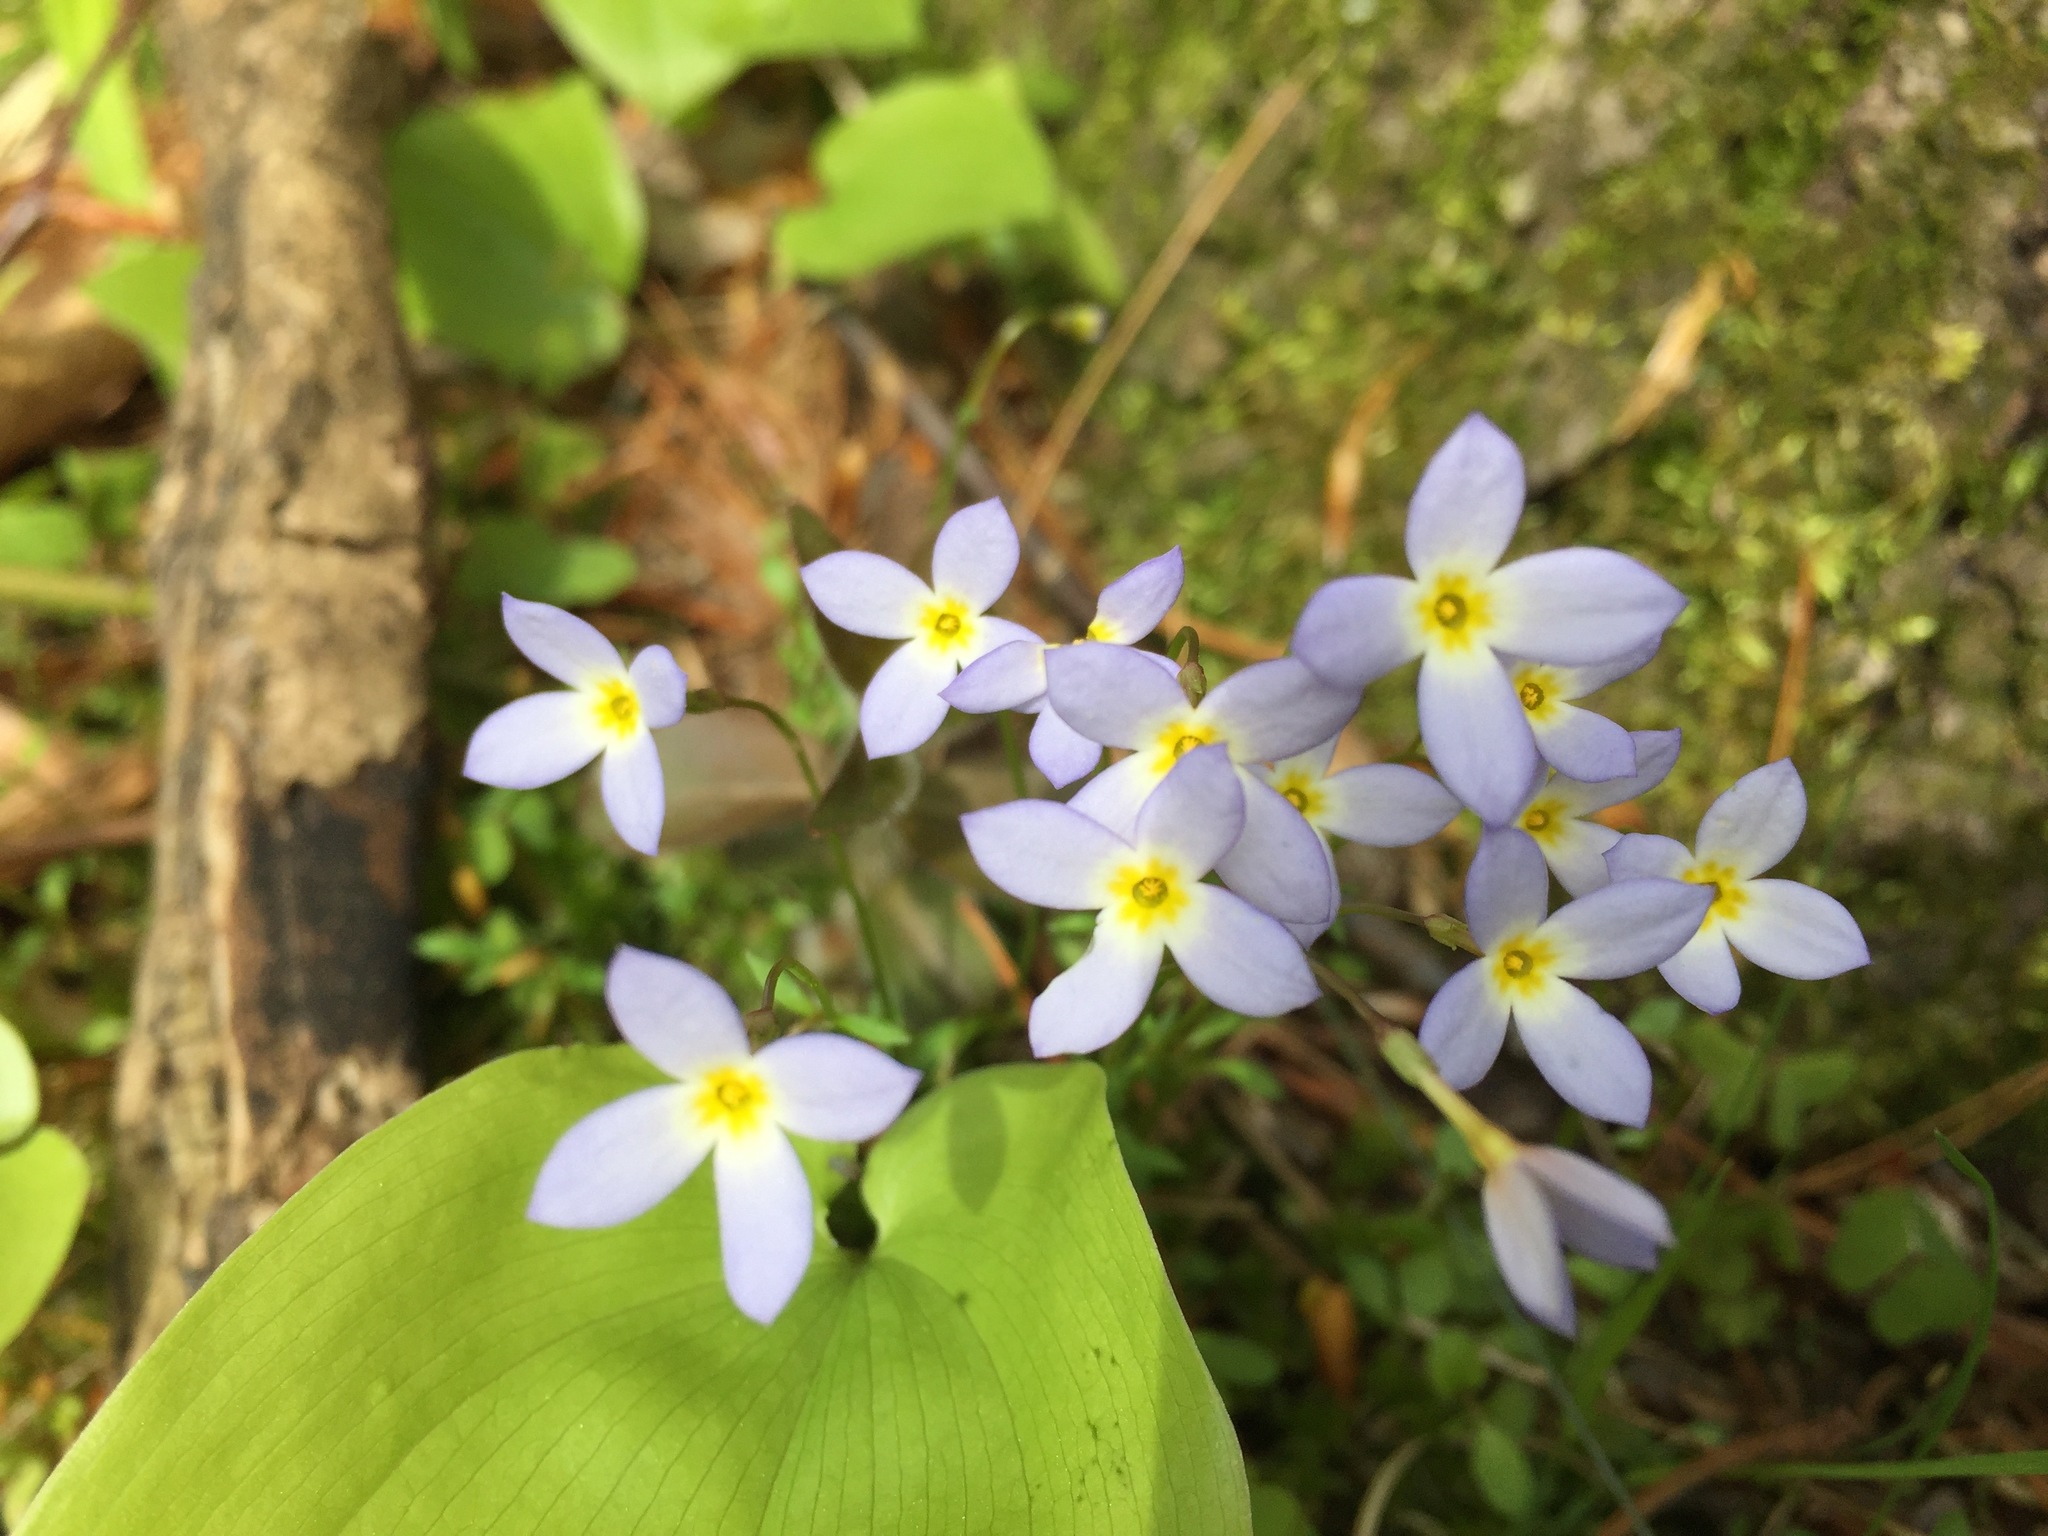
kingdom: Plantae
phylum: Tracheophyta
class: Magnoliopsida
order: Gentianales
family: Rubiaceae
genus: Houstonia
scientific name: Houstonia caerulea
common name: Bluets
